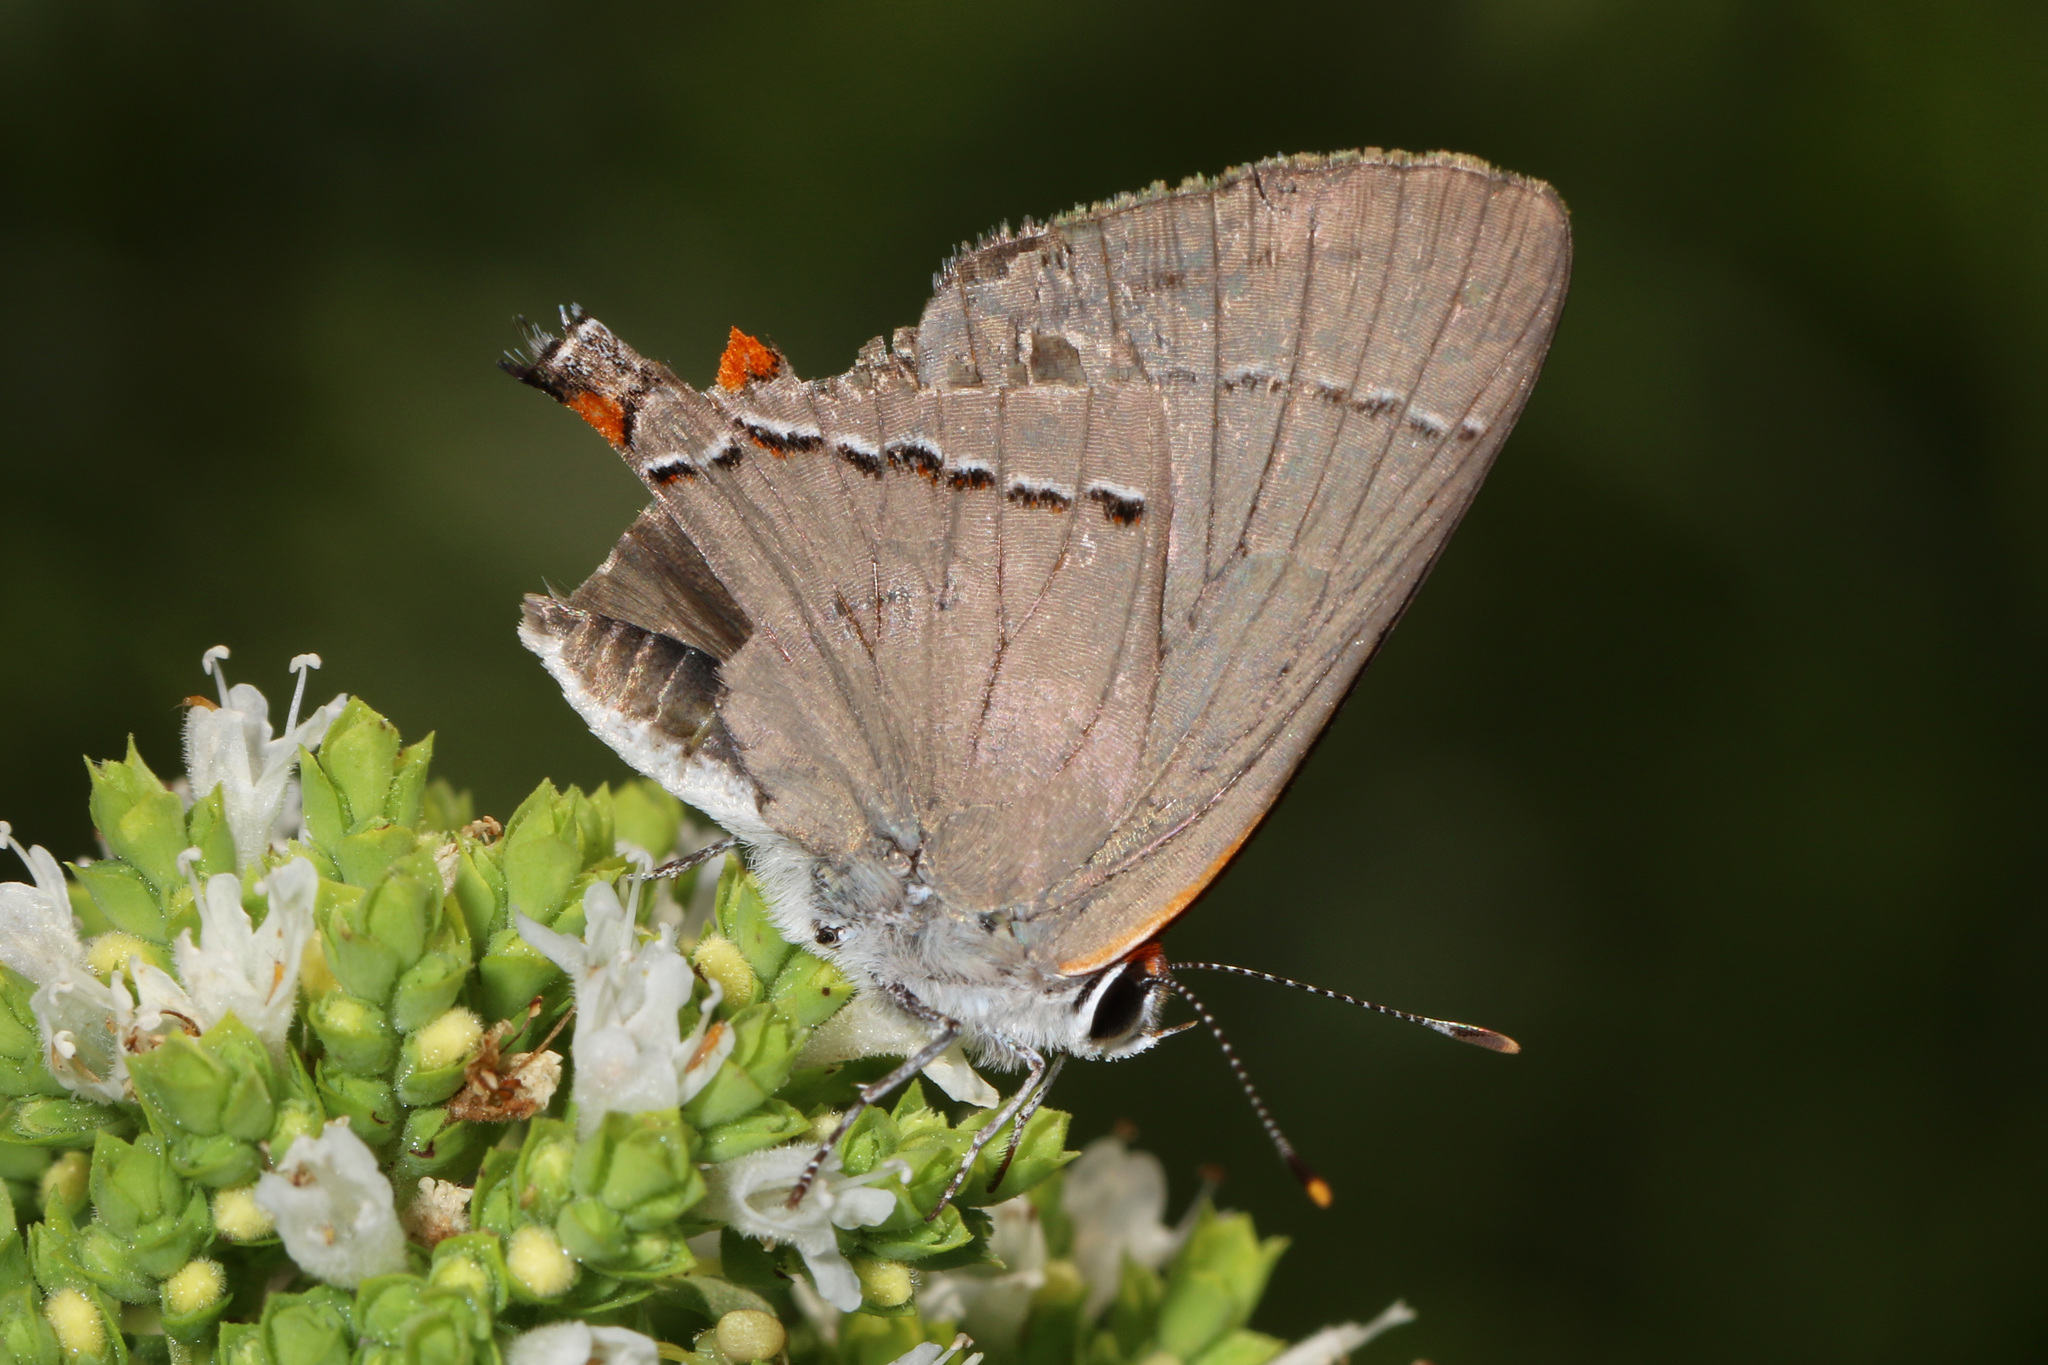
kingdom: Animalia
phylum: Arthropoda
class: Insecta
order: Lepidoptera
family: Lycaenidae
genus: Strymon
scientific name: Strymon melinus
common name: Gray hairstreak
